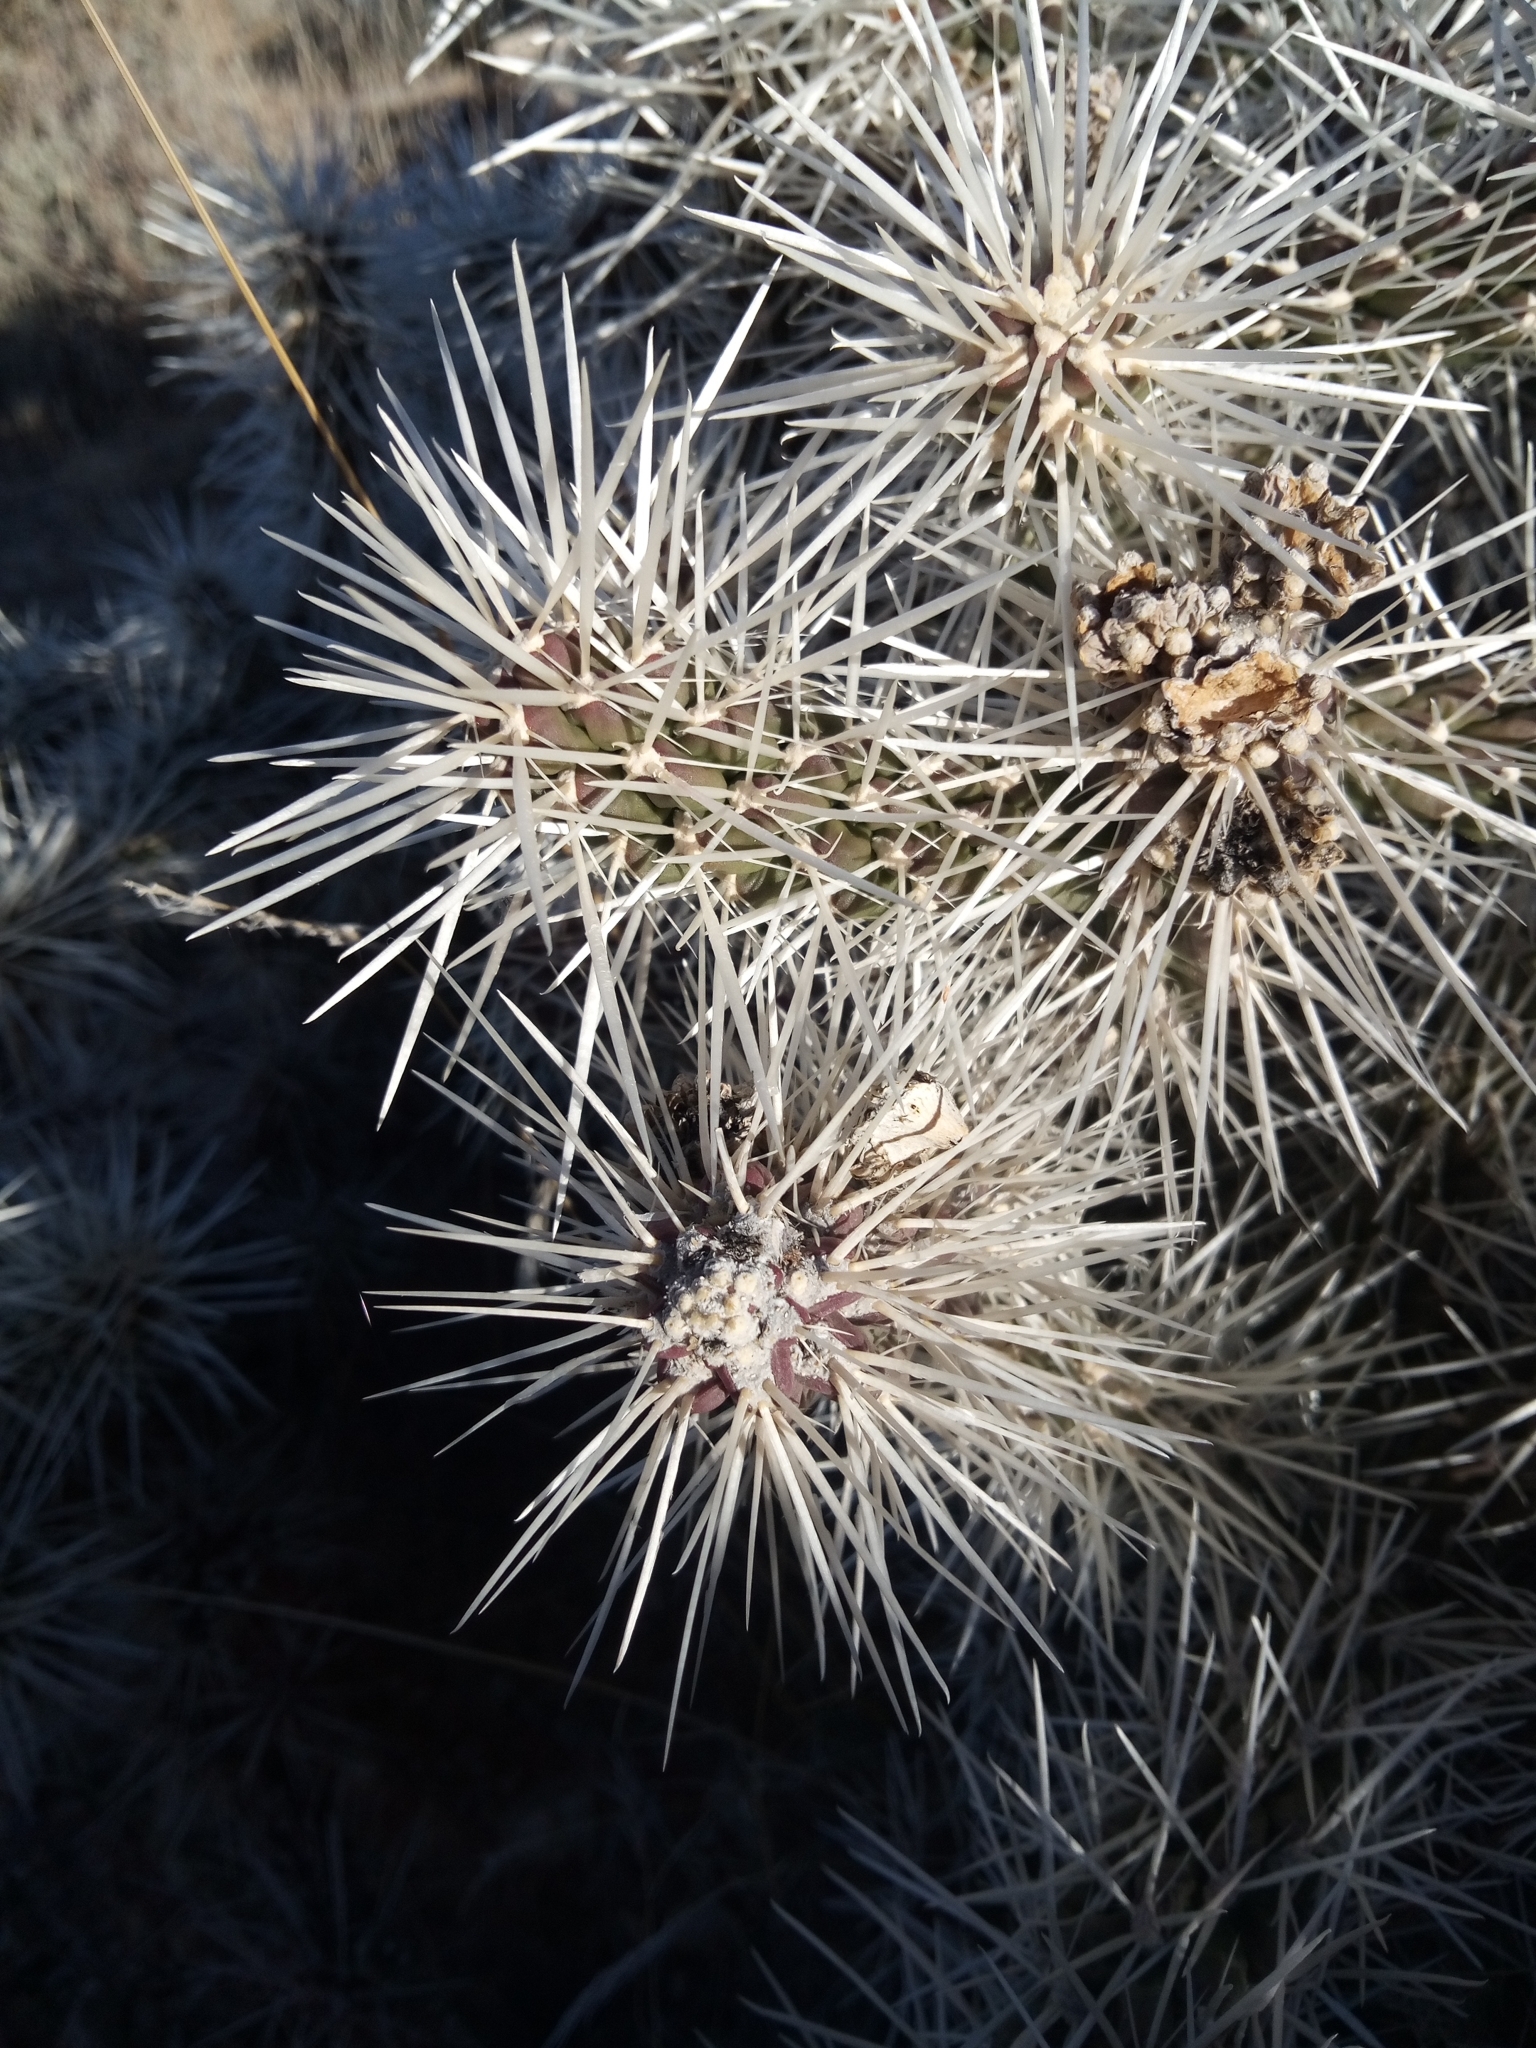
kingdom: Plantae
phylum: Tracheophyta
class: Magnoliopsida
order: Caryophyllales
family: Cactaceae
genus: Cylindropuntia
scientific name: Cylindropuntia whipplei
